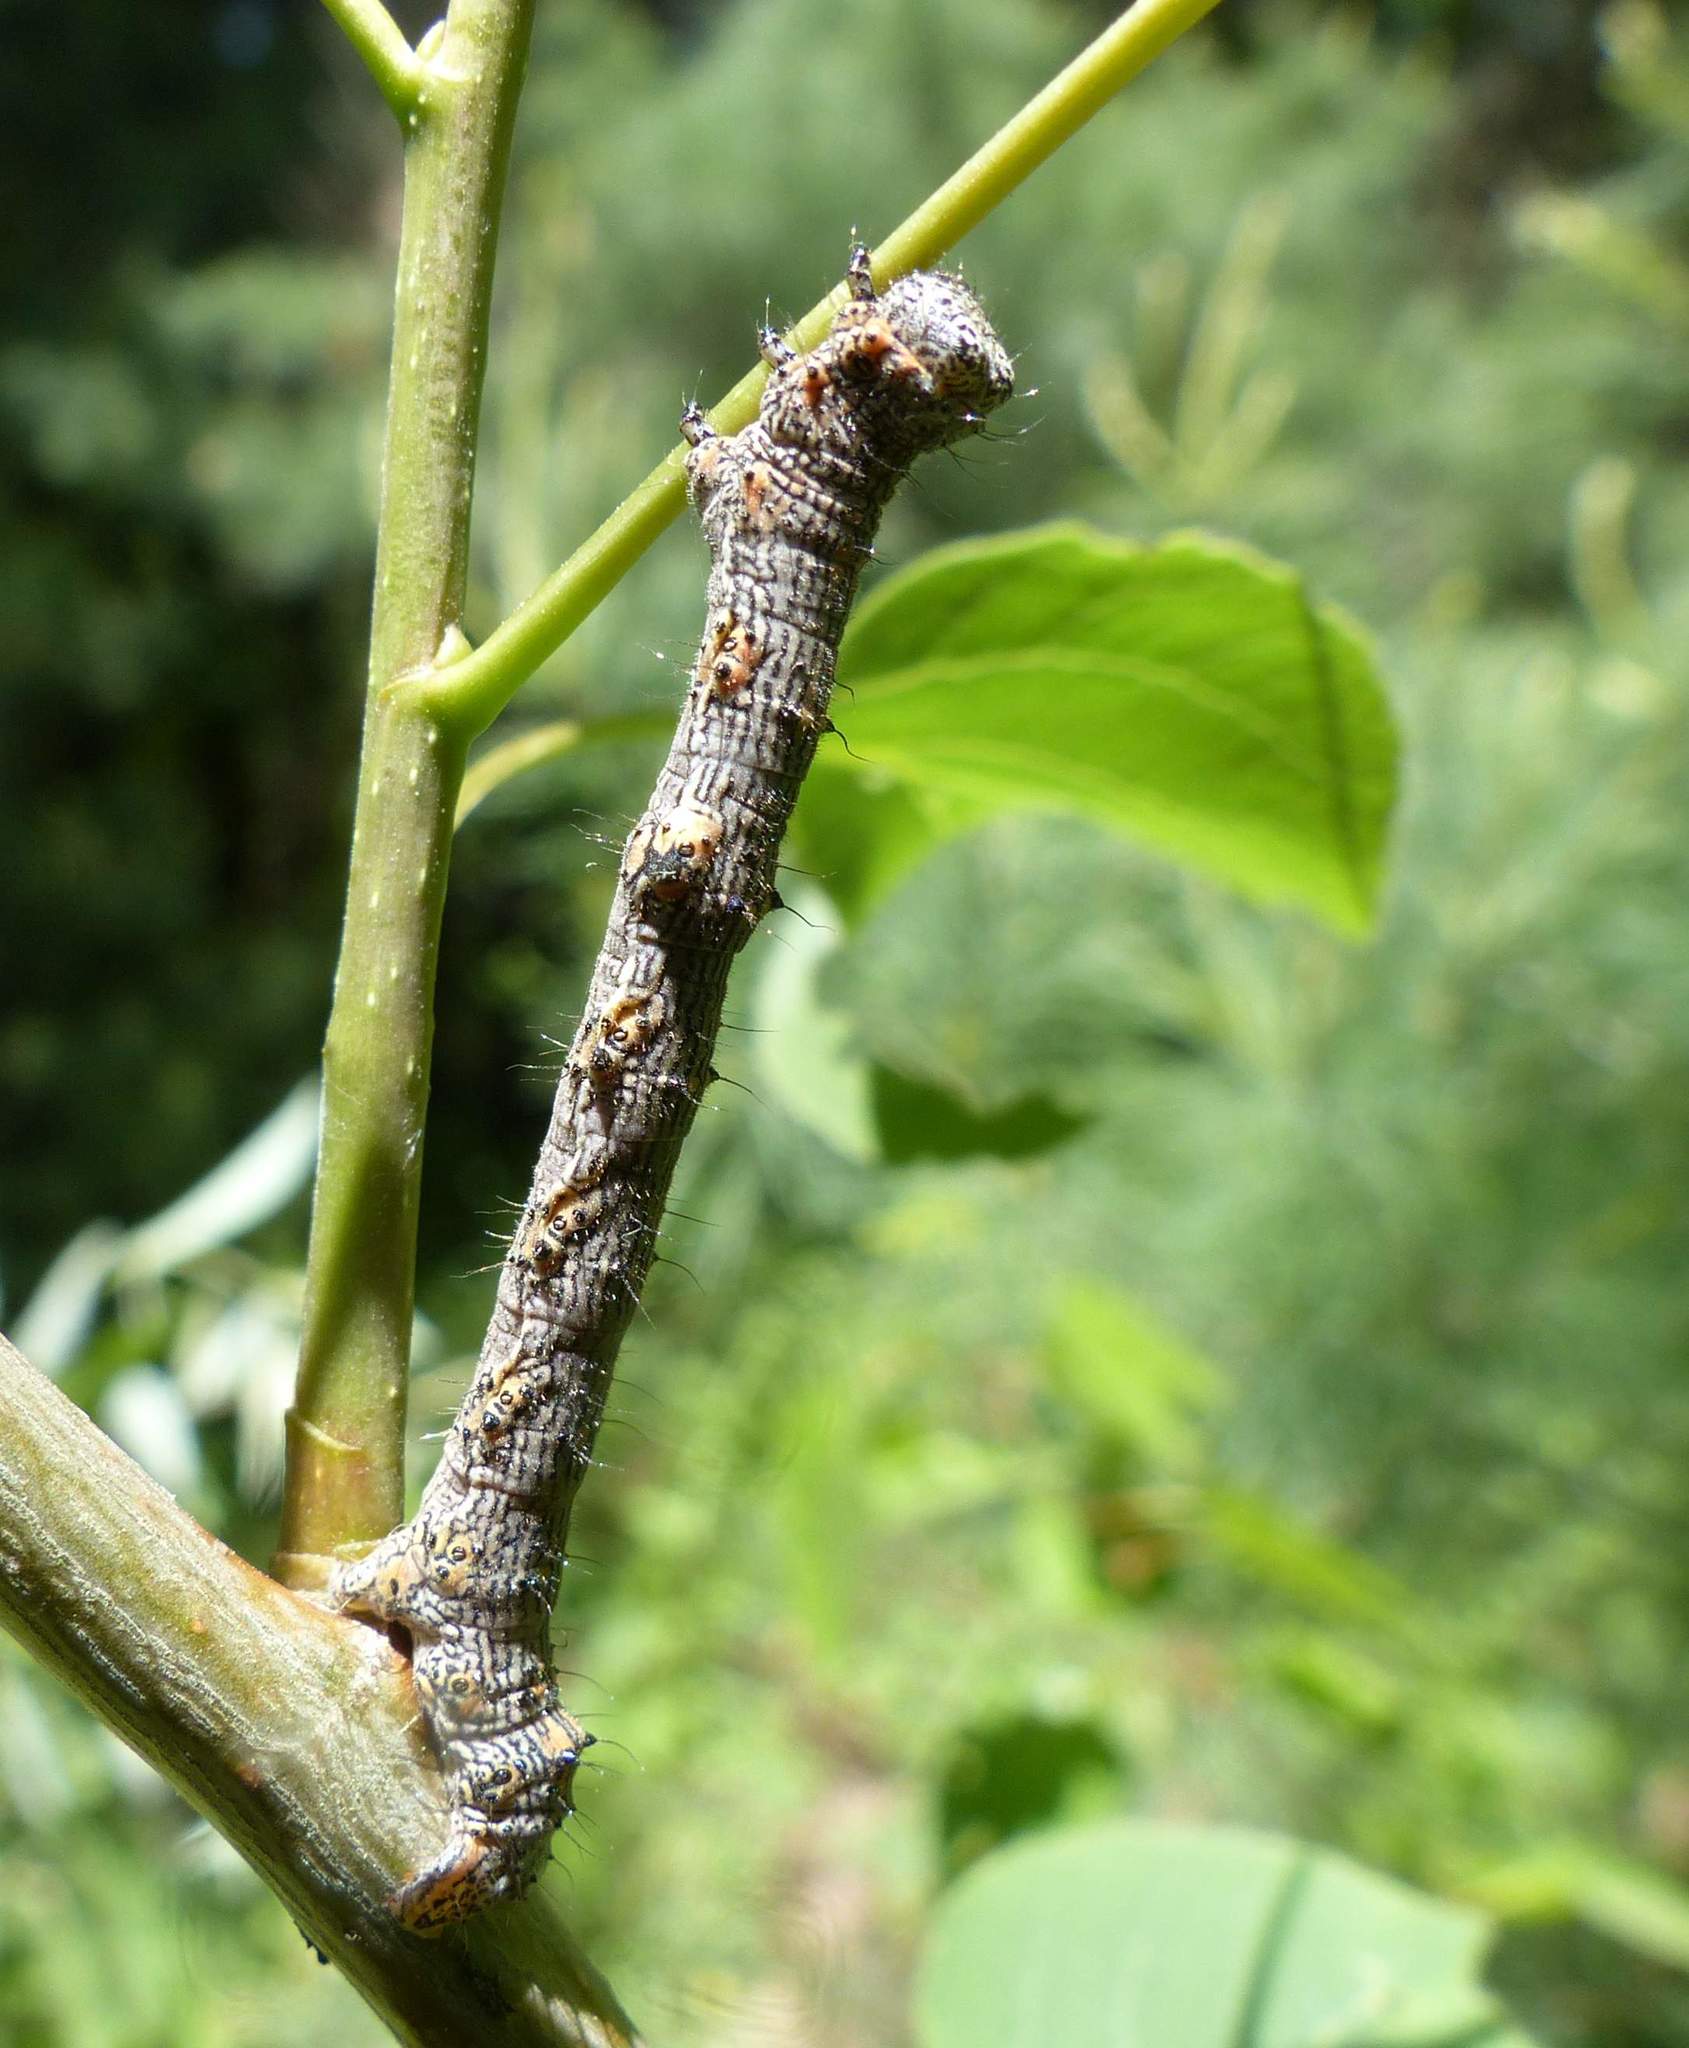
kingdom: Animalia
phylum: Arthropoda
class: Insecta
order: Lepidoptera
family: Geometridae
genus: Phigalia
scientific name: Phigalia titea
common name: Spiny looper
